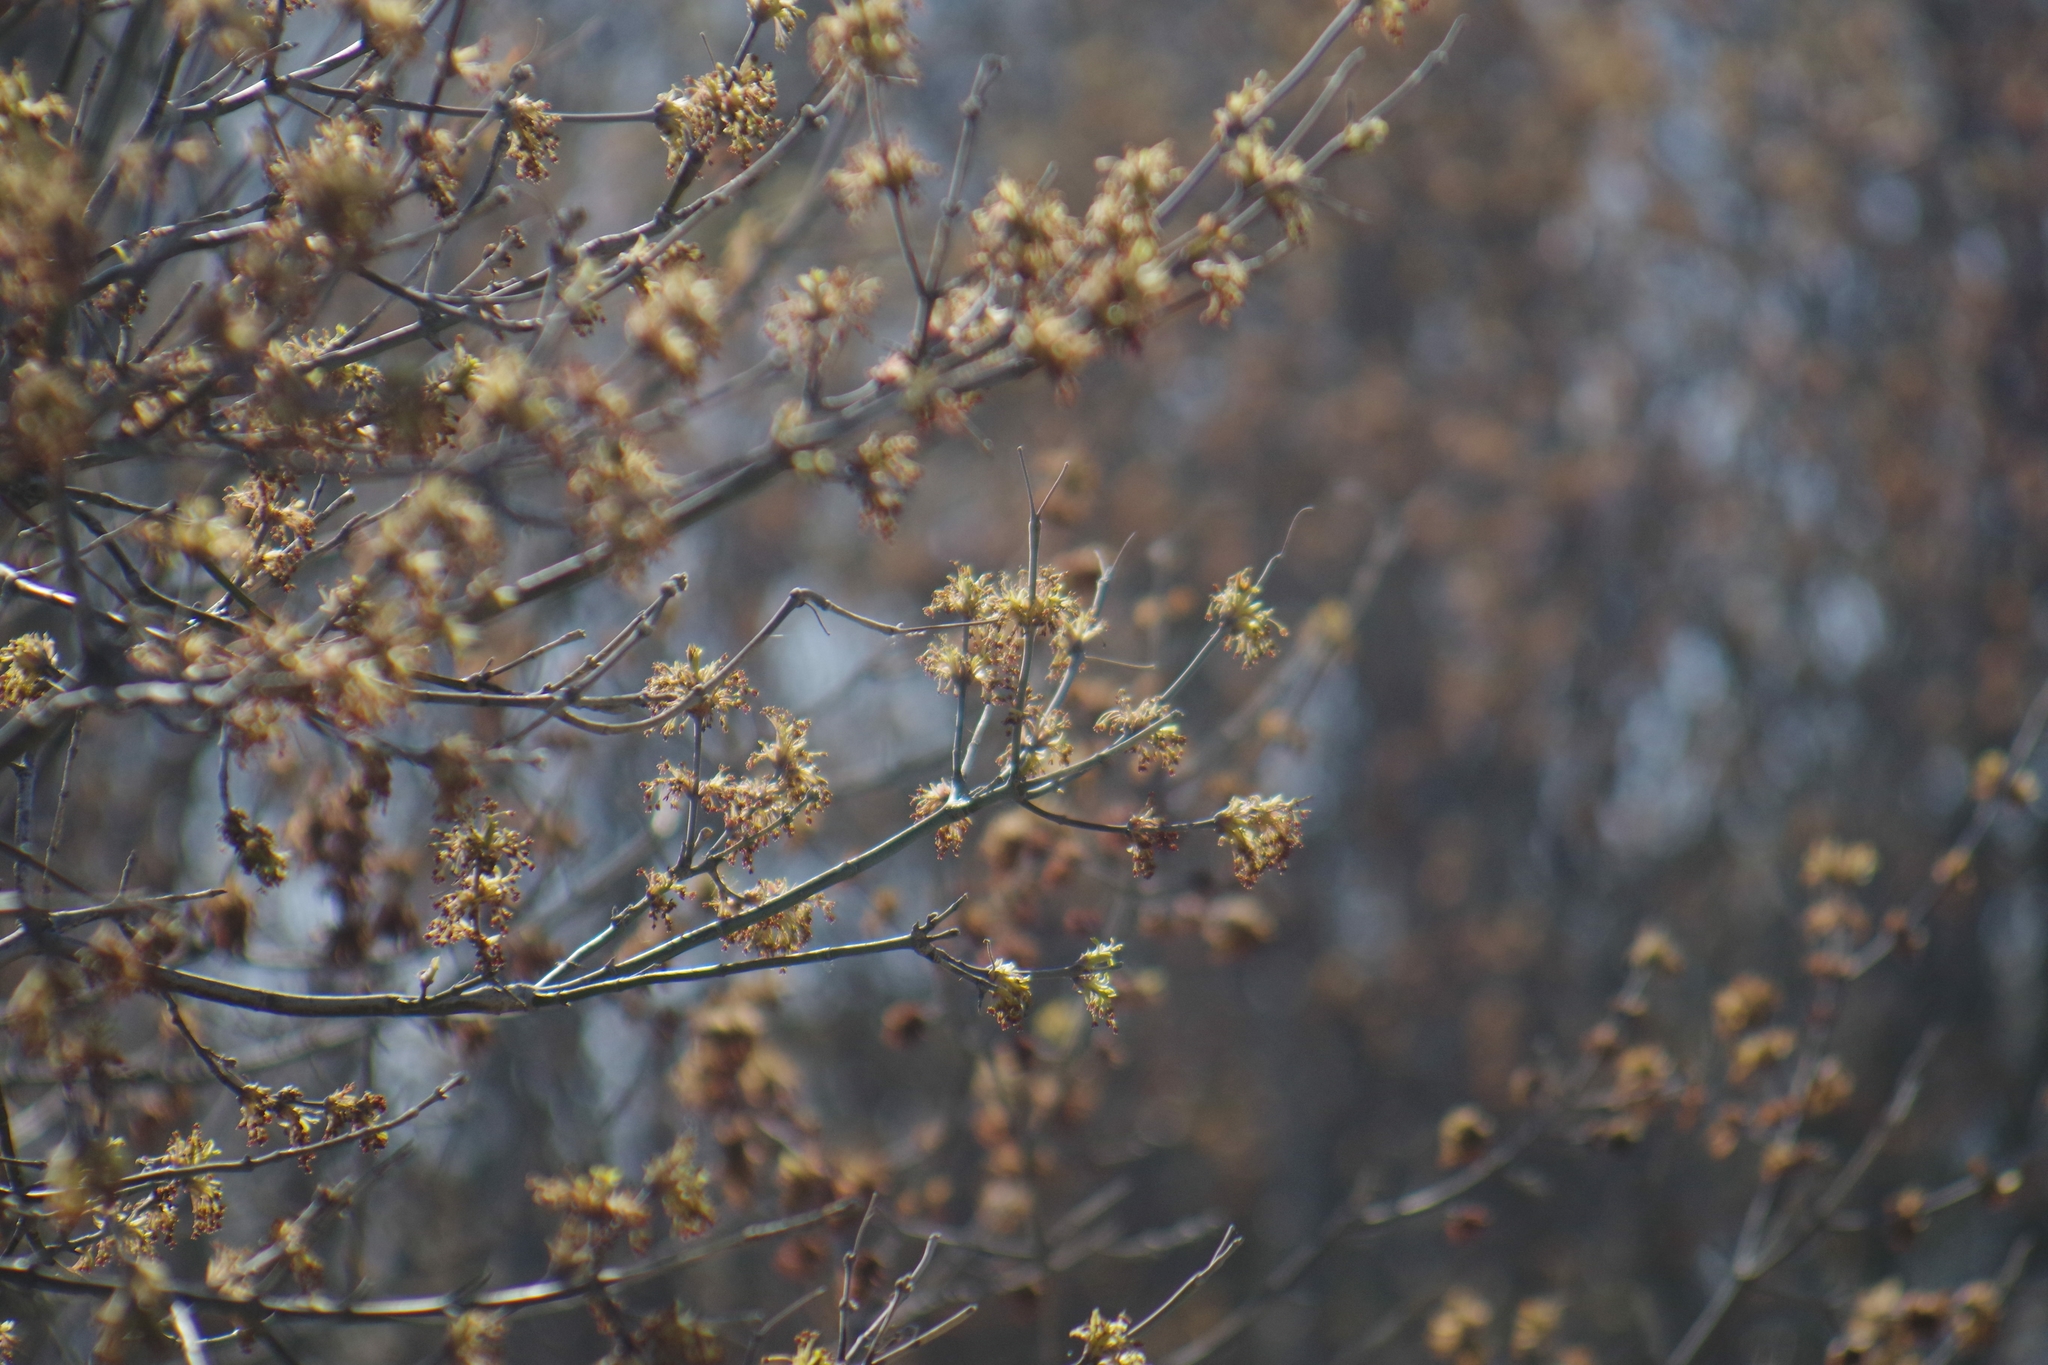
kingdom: Plantae
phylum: Tracheophyta
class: Magnoliopsida
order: Sapindales
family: Sapindaceae
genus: Acer
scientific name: Acer negundo
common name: Ashleaf maple
